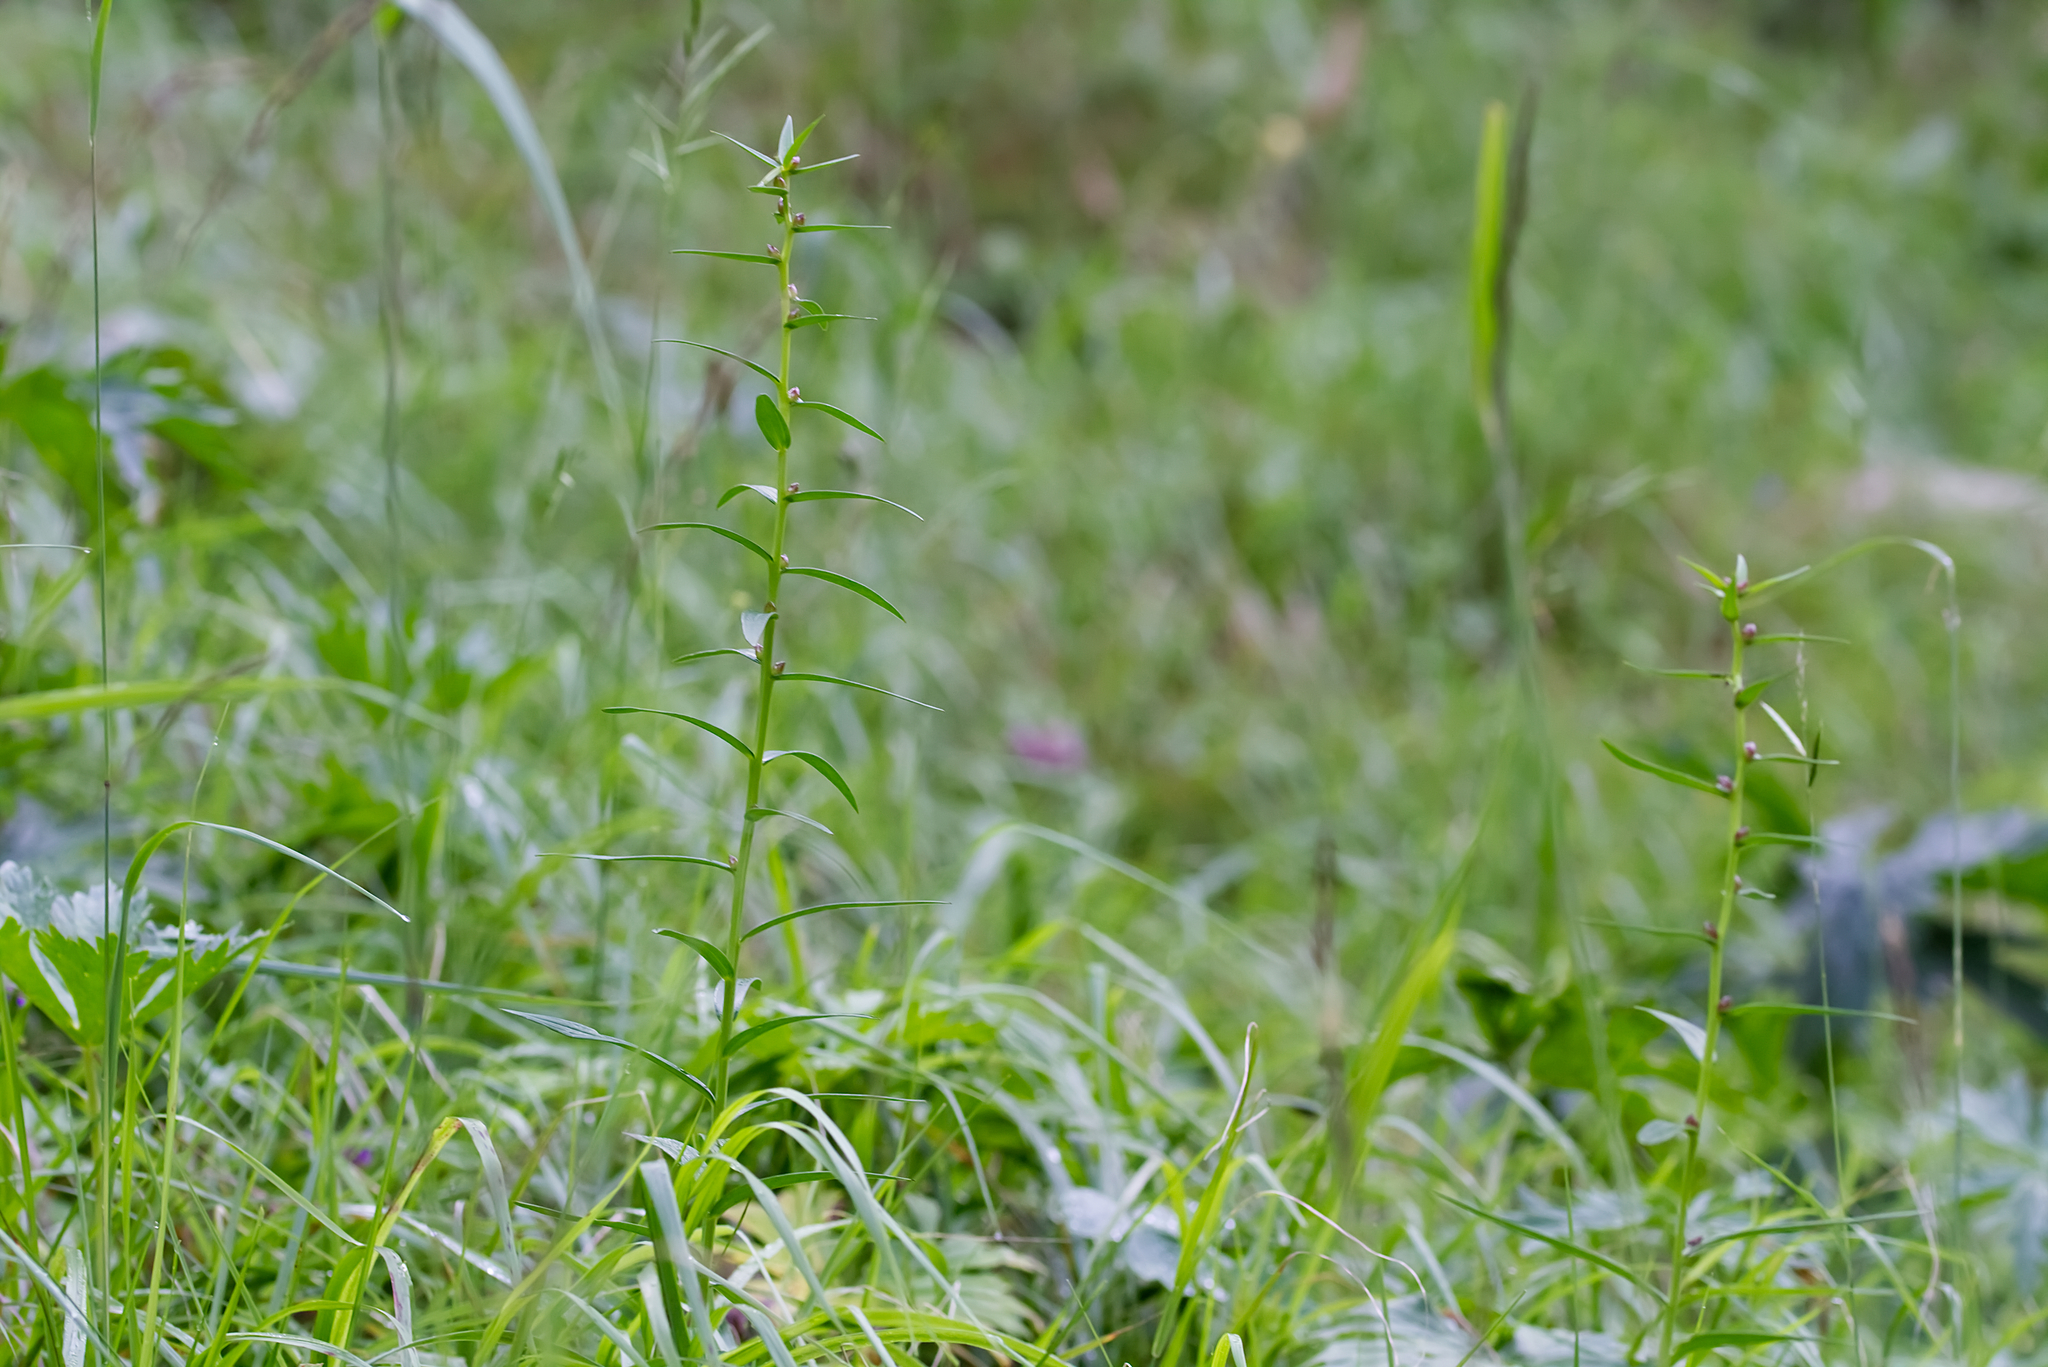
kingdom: Plantae
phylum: Tracheophyta
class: Liliopsida
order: Liliales
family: Liliaceae
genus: Lilium
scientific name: Lilium bulbiferum
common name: Orange lily
